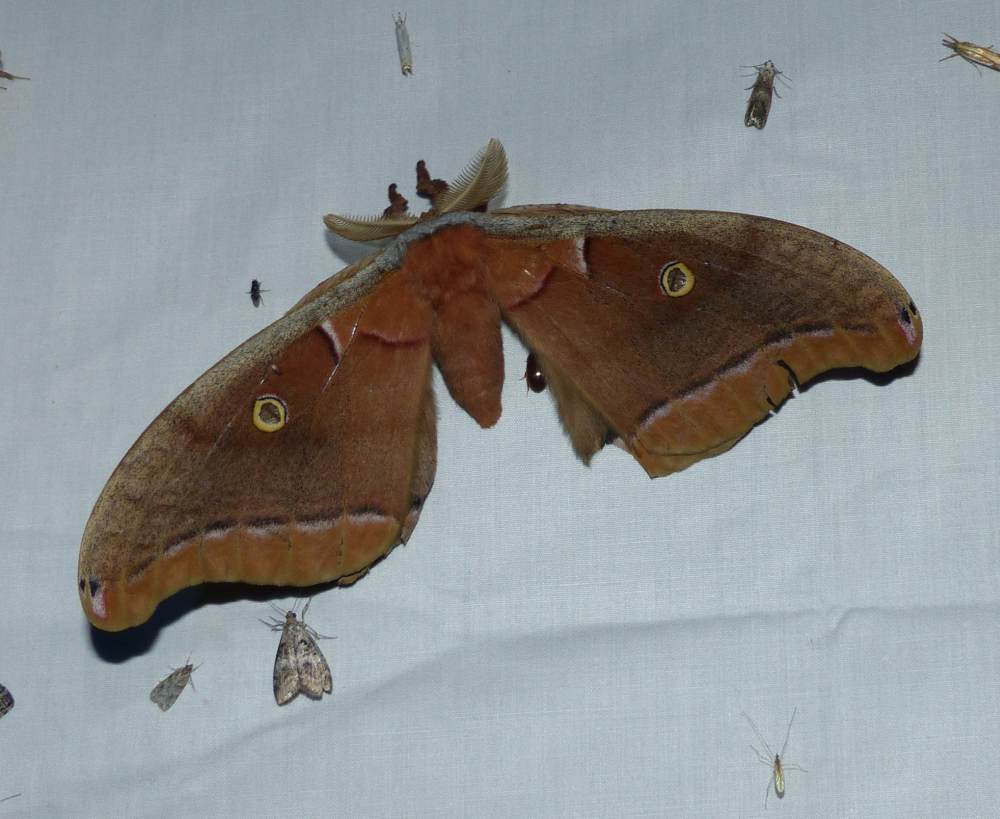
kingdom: Animalia
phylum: Arthropoda
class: Insecta
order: Lepidoptera
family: Saturniidae
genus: Antheraea
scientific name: Antheraea polyphemus
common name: Polyphemus moth
